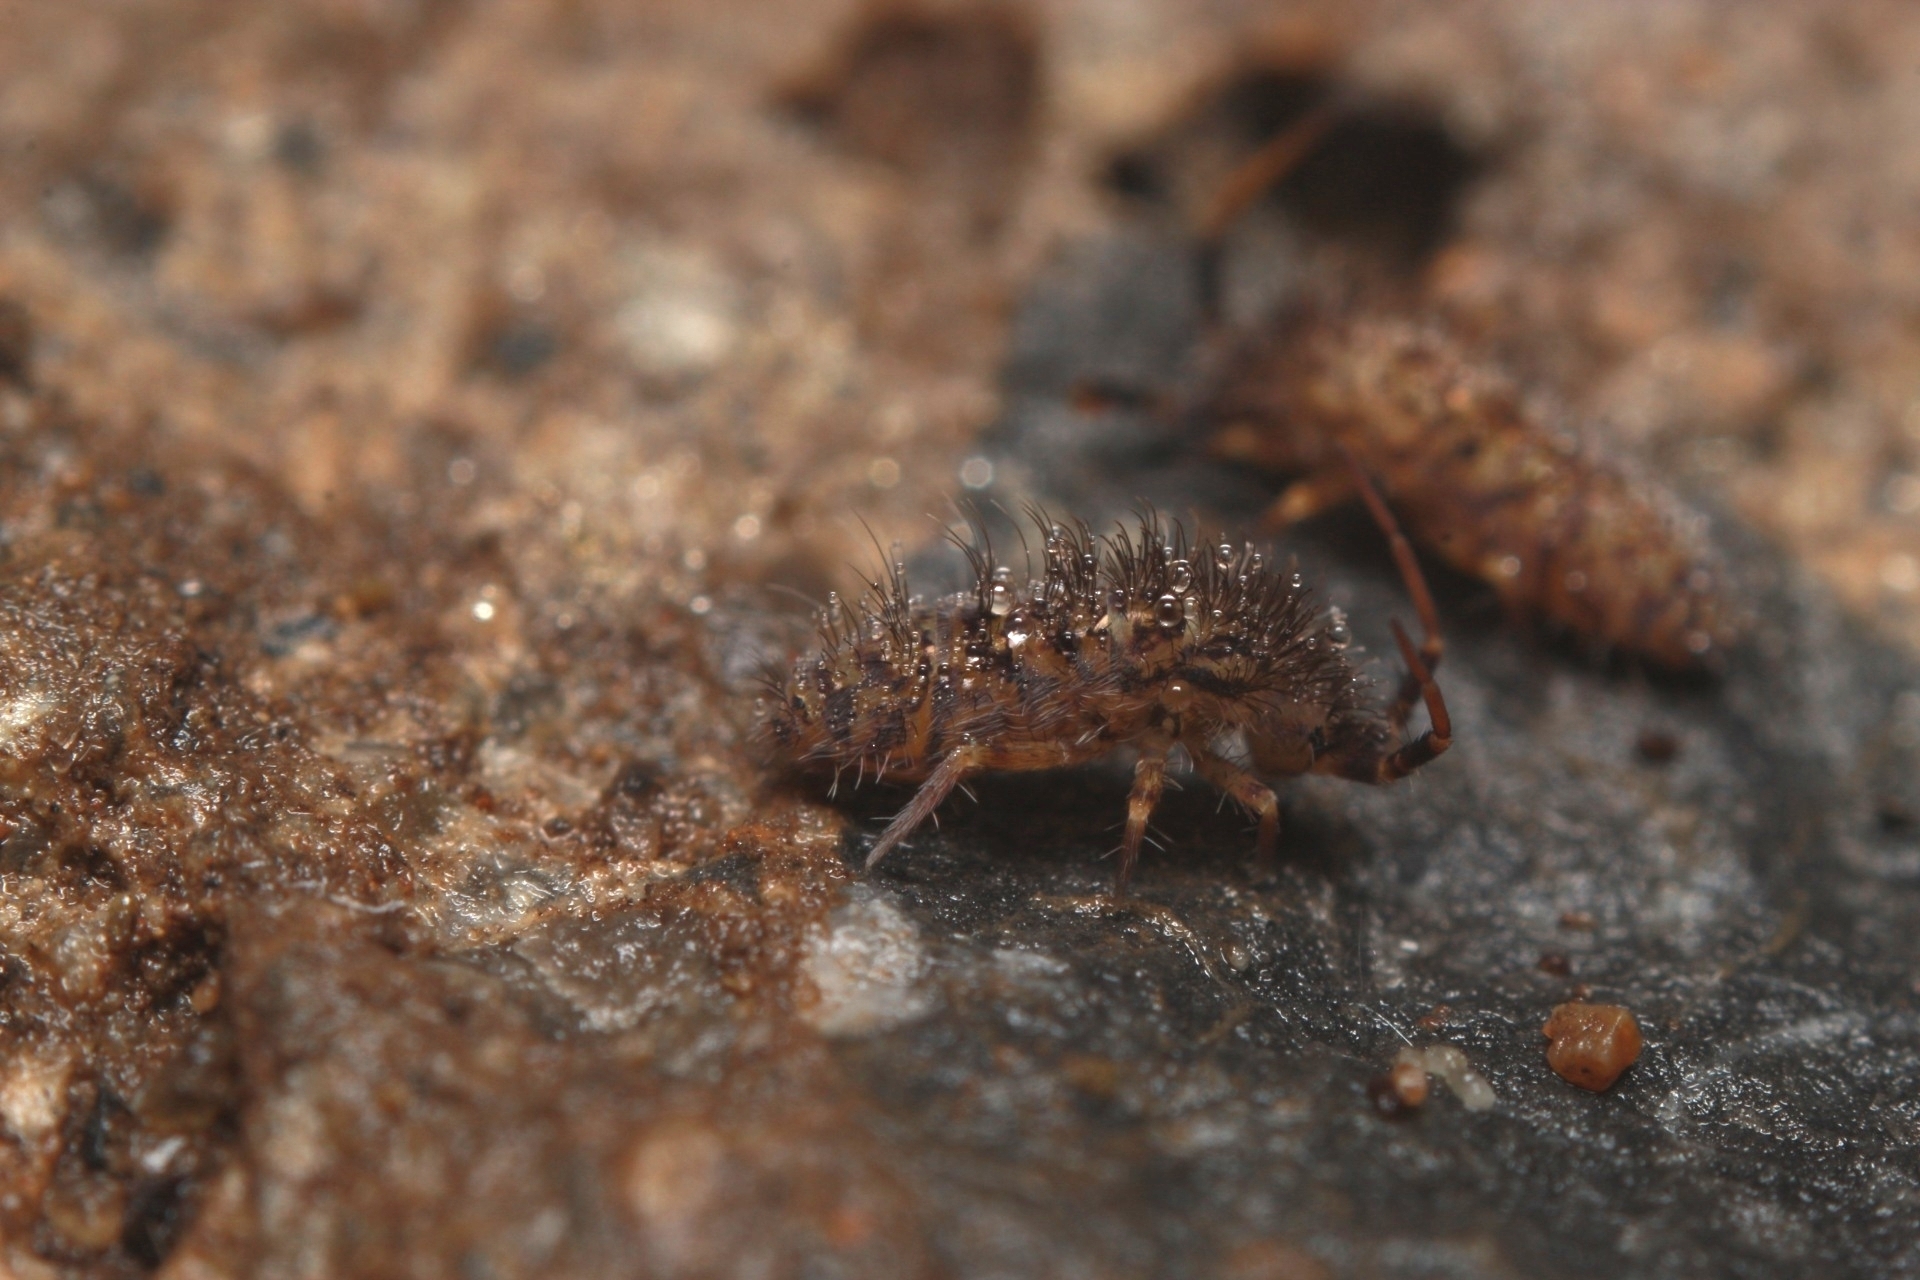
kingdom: Animalia
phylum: Arthropoda
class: Collembola
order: Entomobryomorpha
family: Orchesellidae
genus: Orchesella
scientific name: Orchesella villosa
